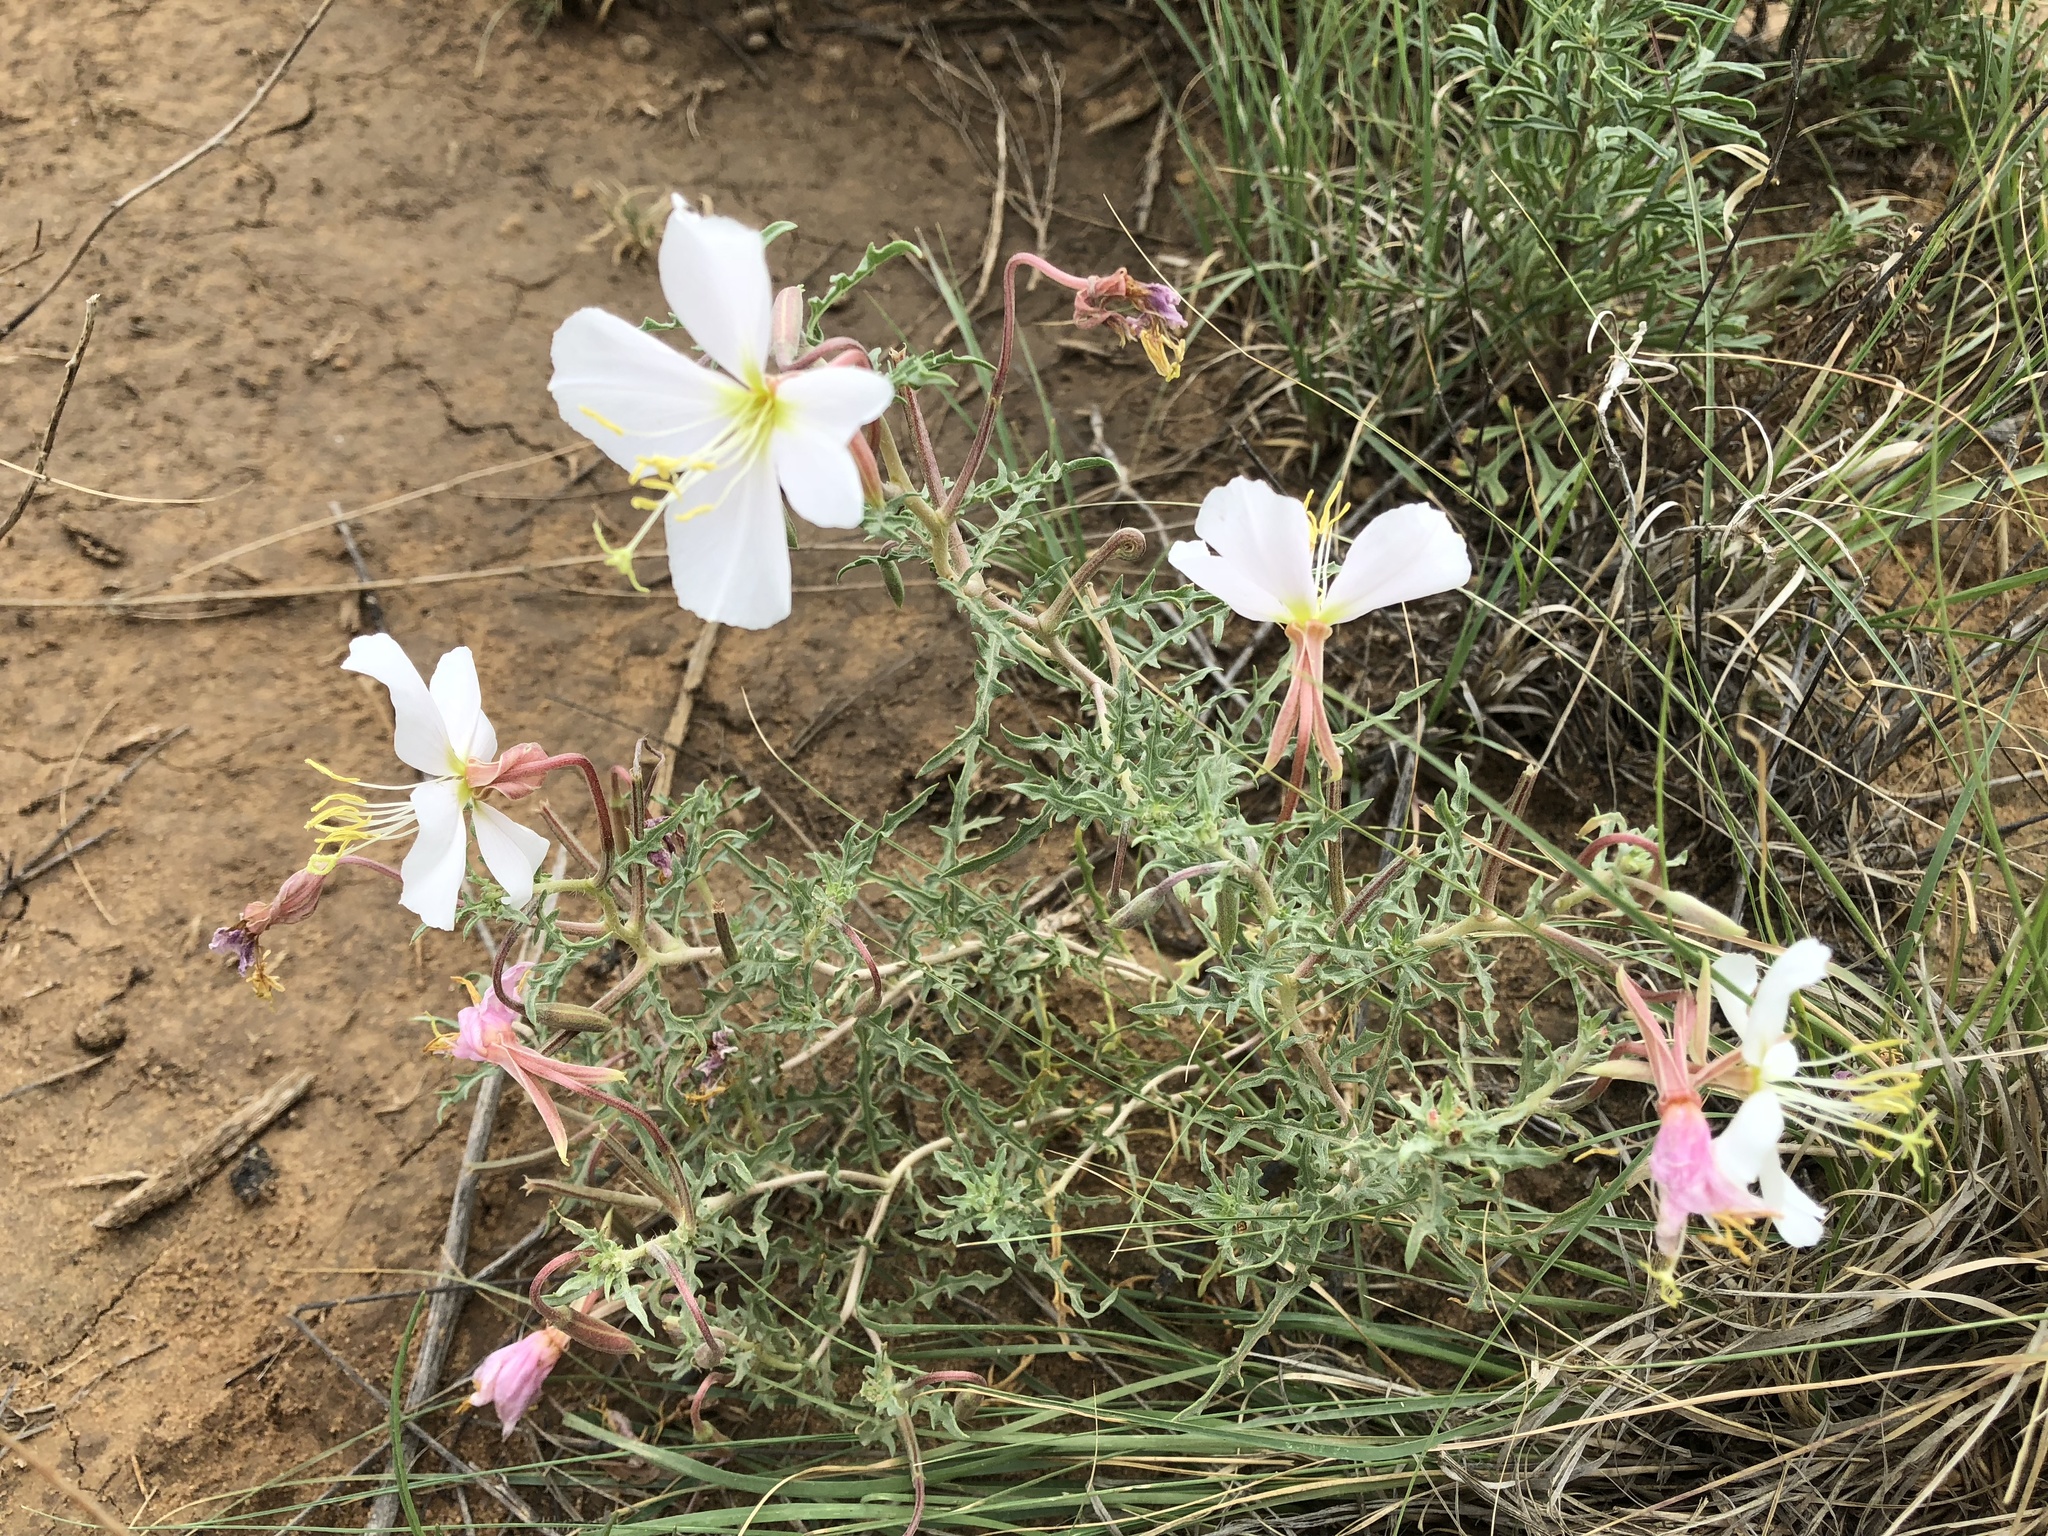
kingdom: Plantae
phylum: Tracheophyta
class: Magnoliopsida
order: Myrtales
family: Onagraceae
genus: Oenothera
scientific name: Oenothera pallida
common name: Pale evening-primrose
